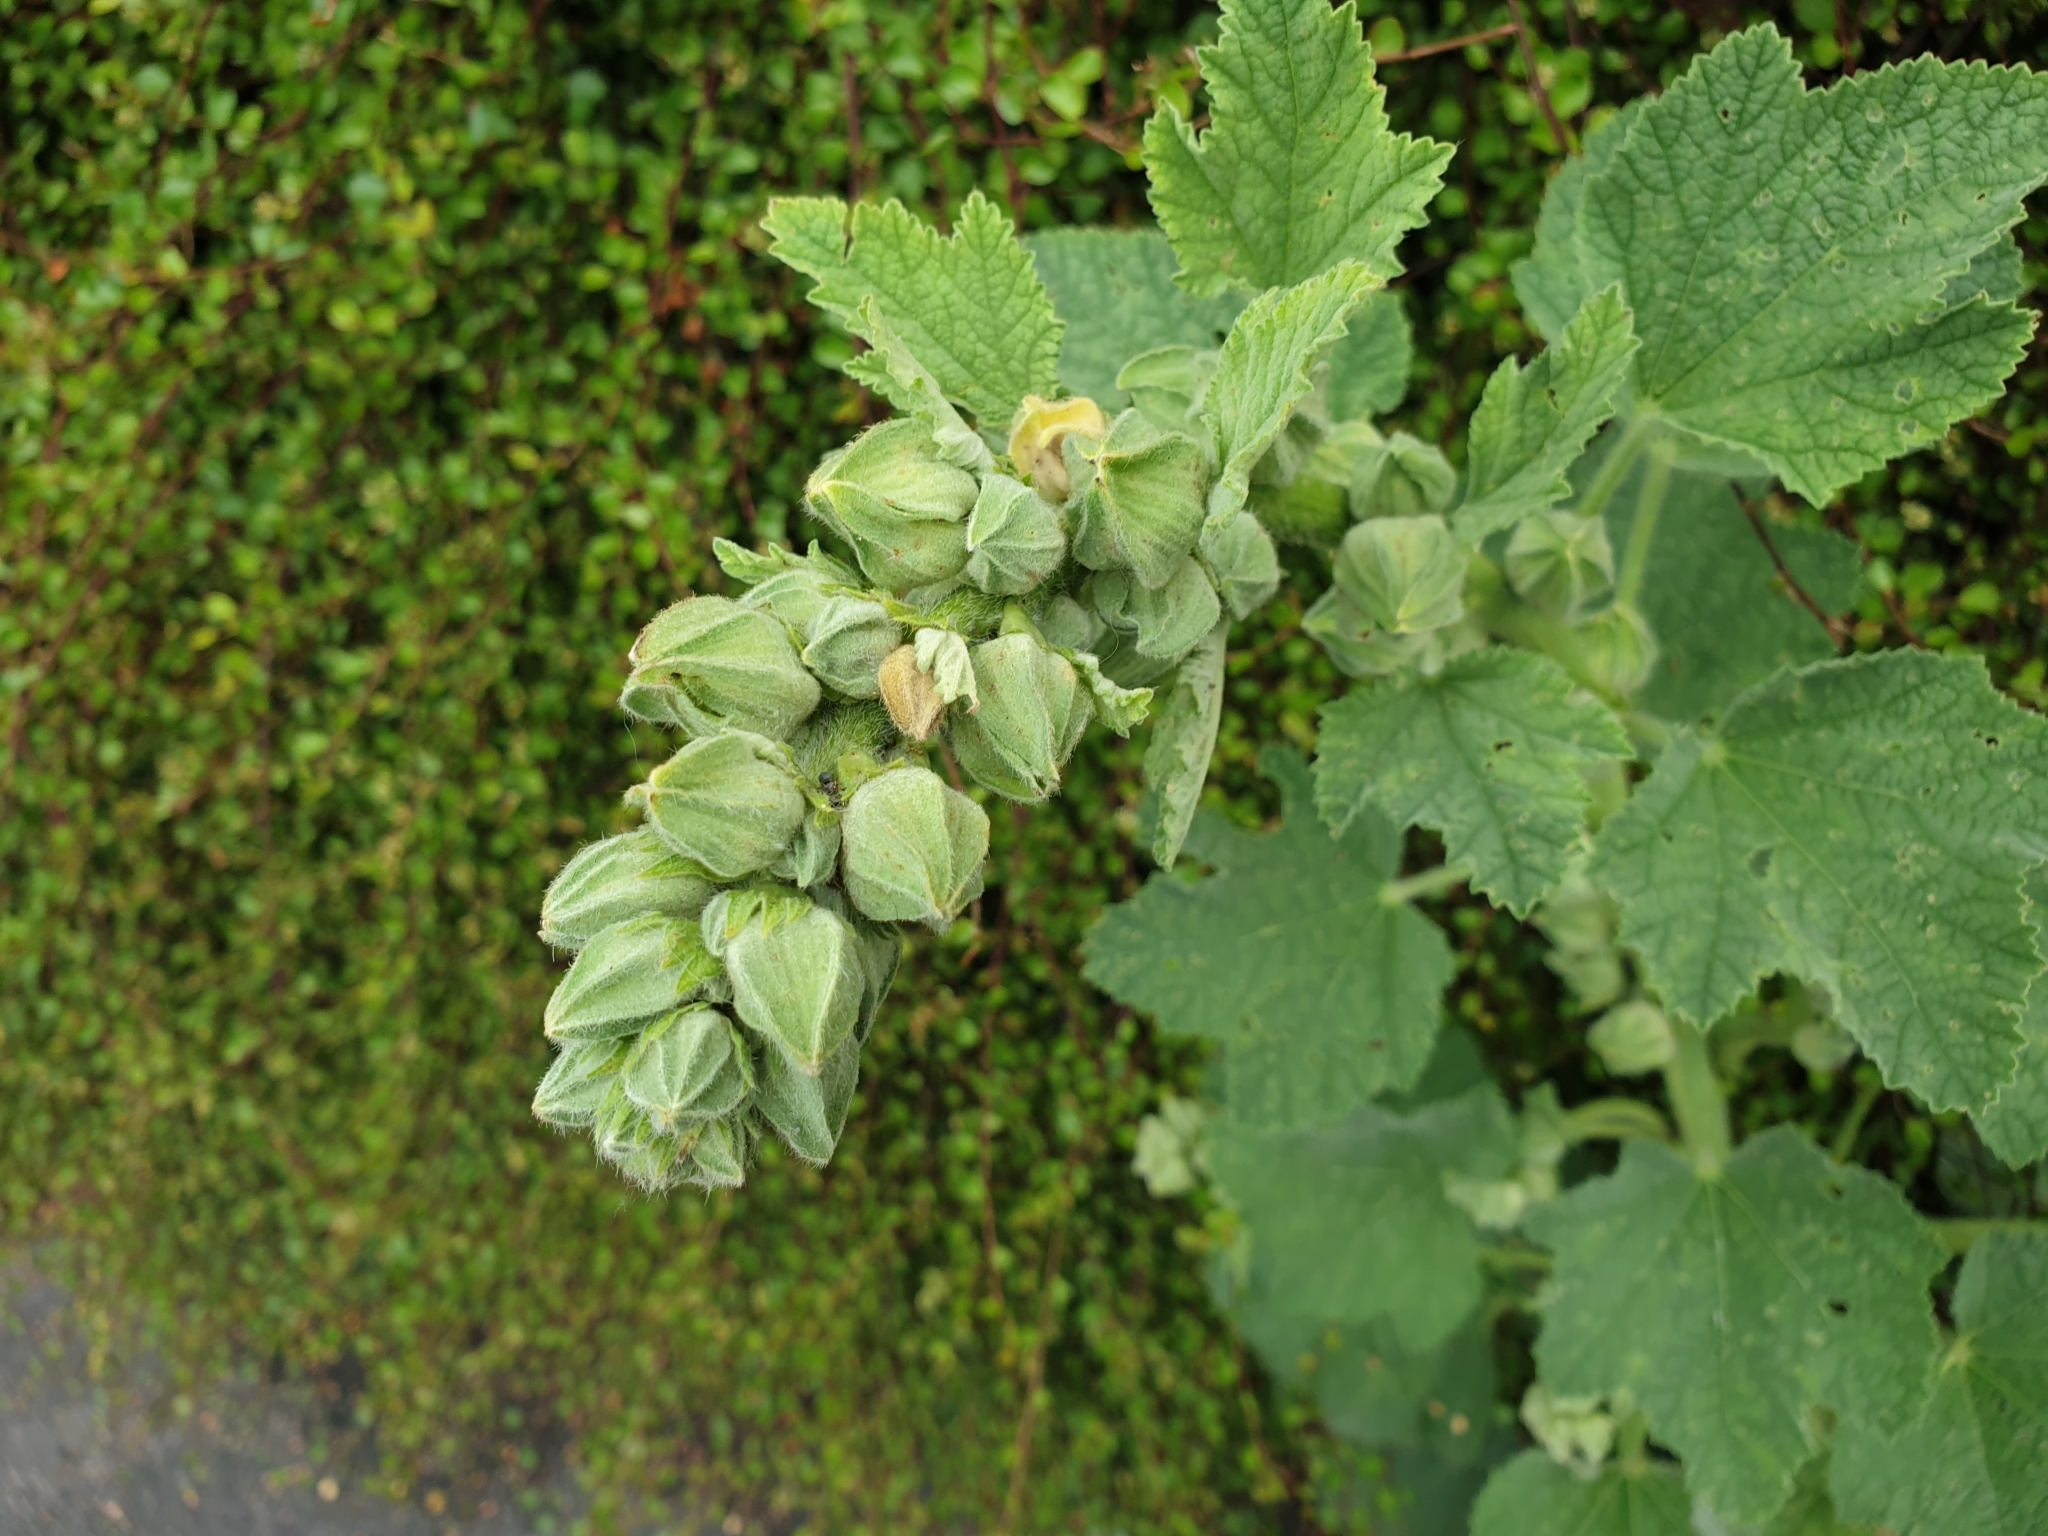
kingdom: Plantae
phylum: Tracheophyta
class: Magnoliopsida
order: Malvales
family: Malvaceae
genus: Alcea
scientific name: Alcea rosea
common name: Hollyhock
